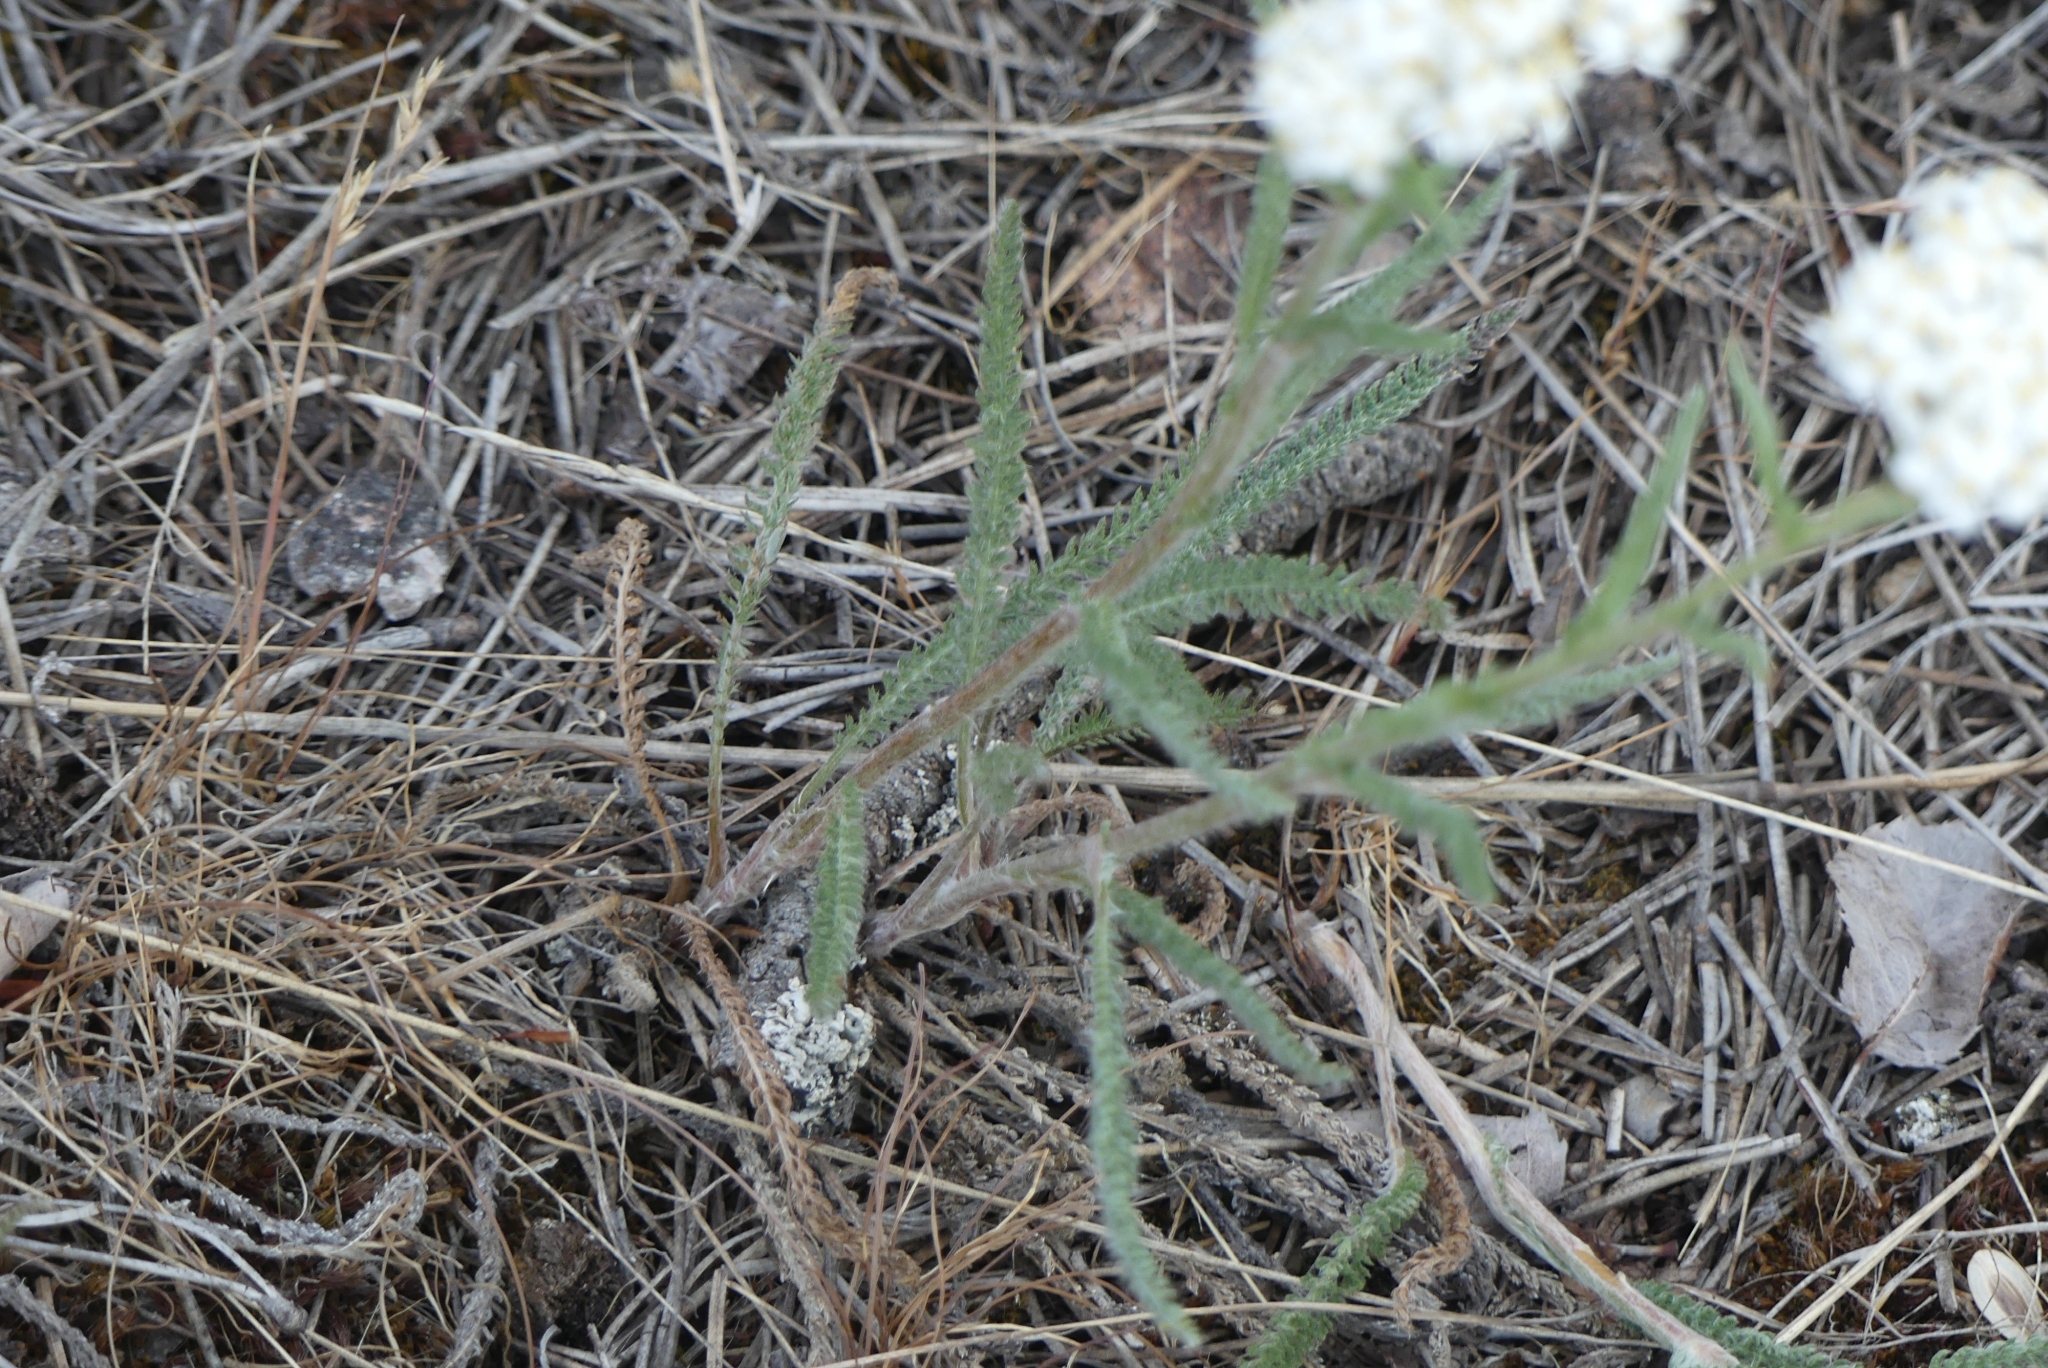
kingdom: Plantae
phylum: Tracheophyta
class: Magnoliopsida
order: Asterales
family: Asteraceae
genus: Achillea
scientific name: Achillea millefolium
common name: Yarrow
